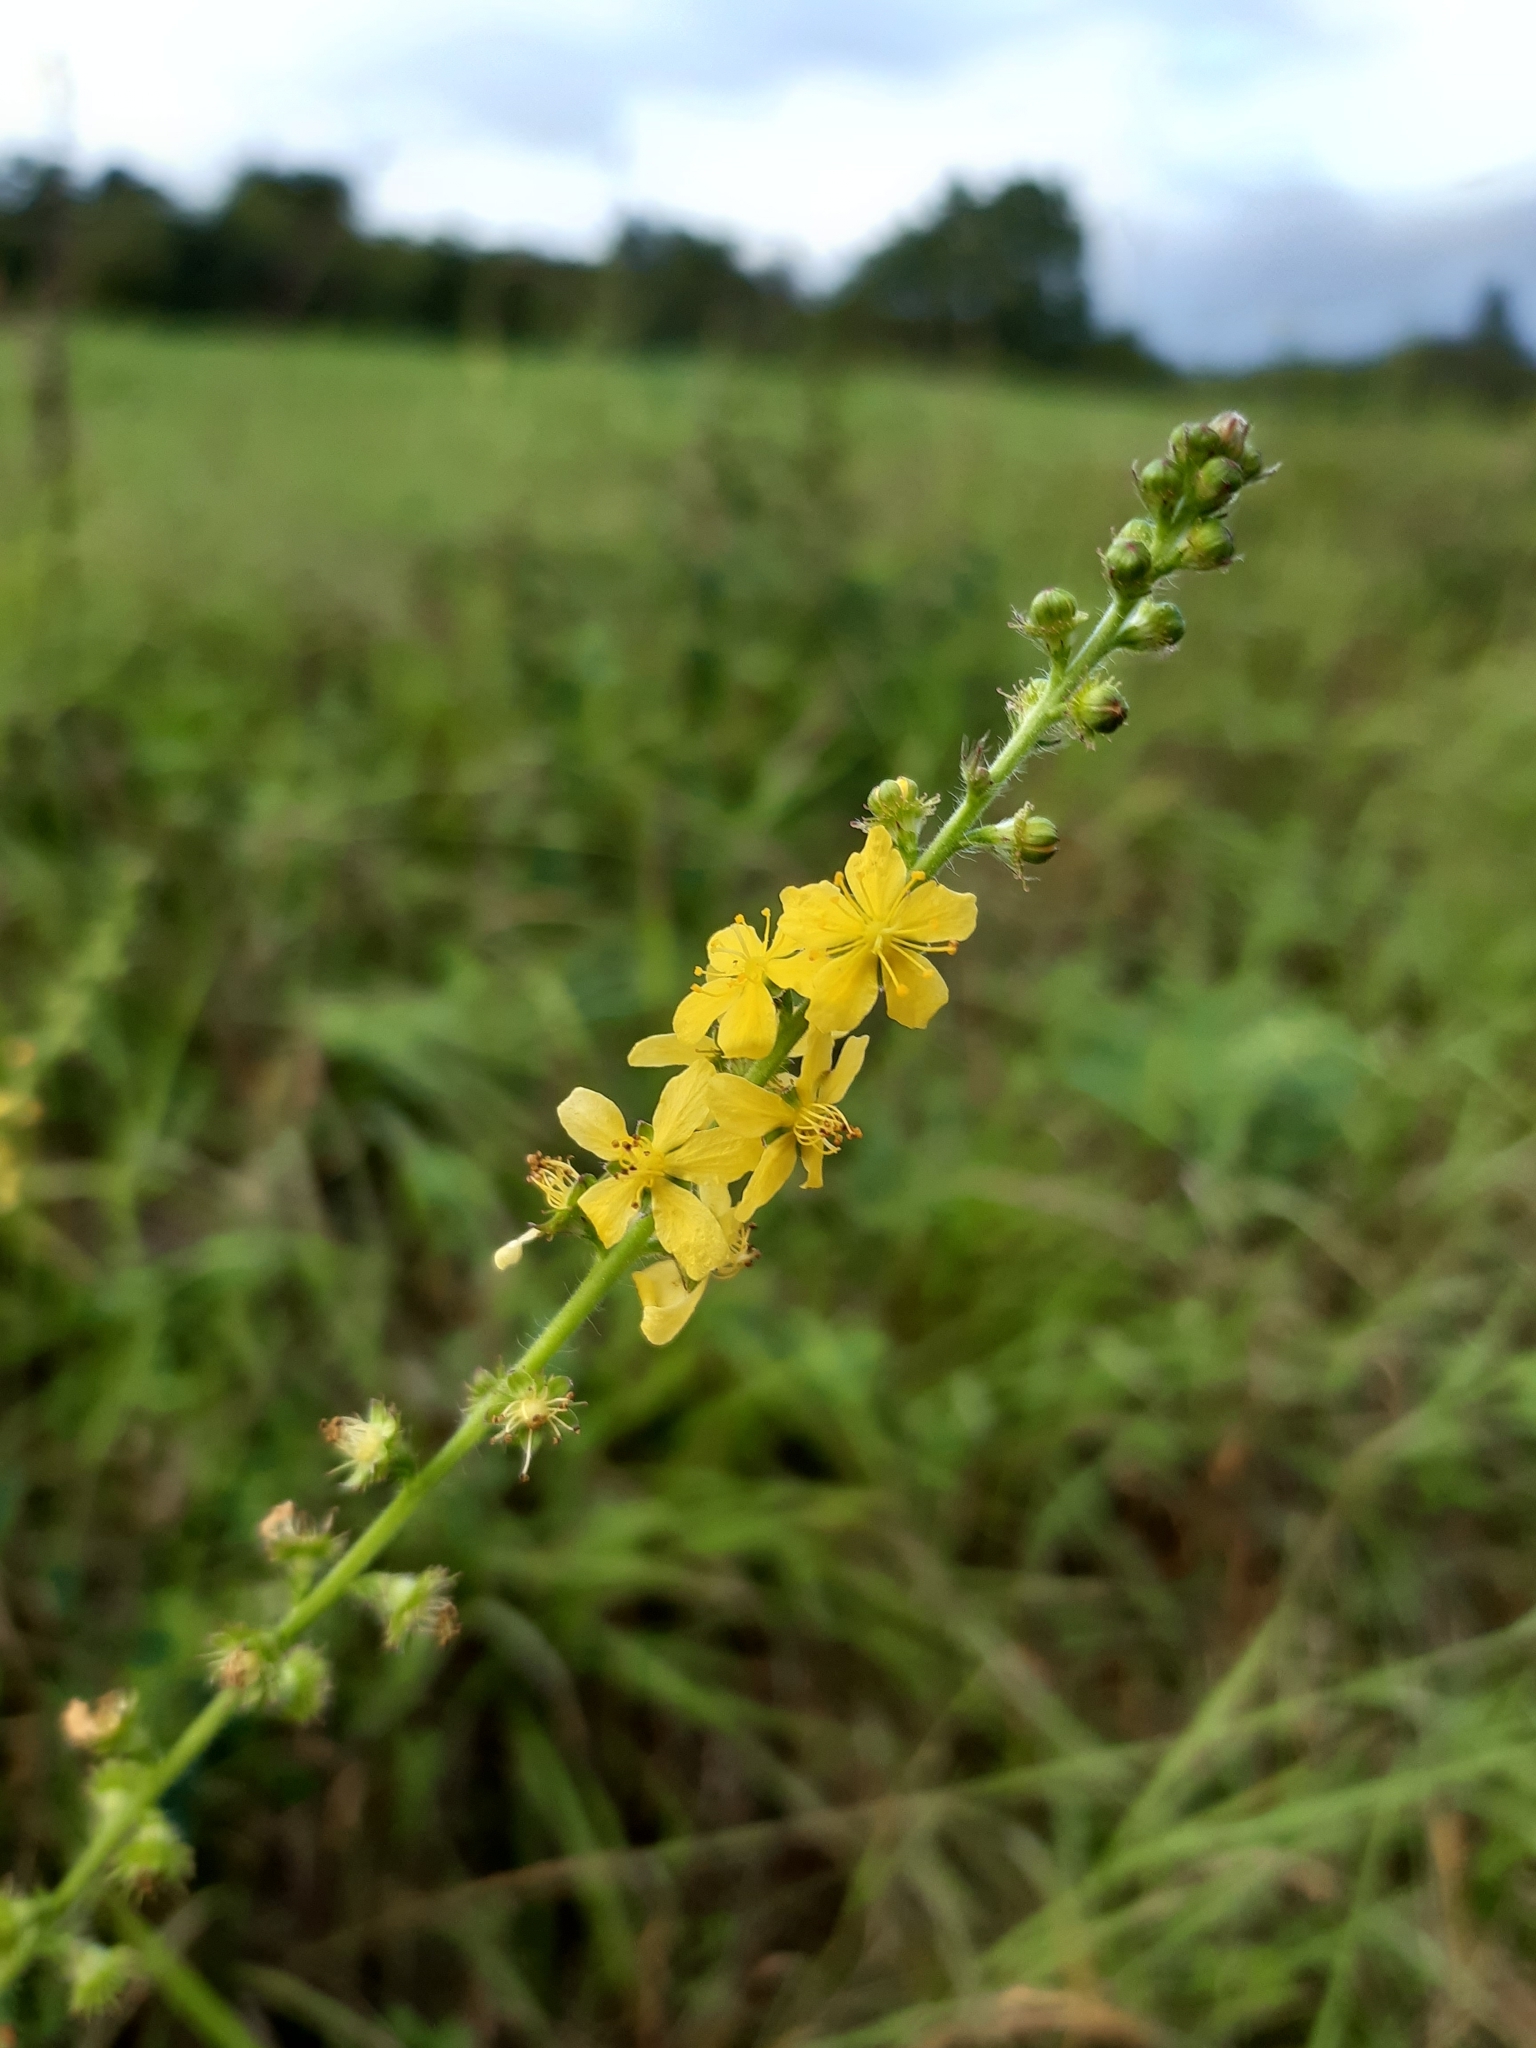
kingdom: Plantae
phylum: Tracheophyta
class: Magnoliopsida
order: Rosales
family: Rosaceae
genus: Agrimonia
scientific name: Agrimonia eupatoria
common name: Agrimony
